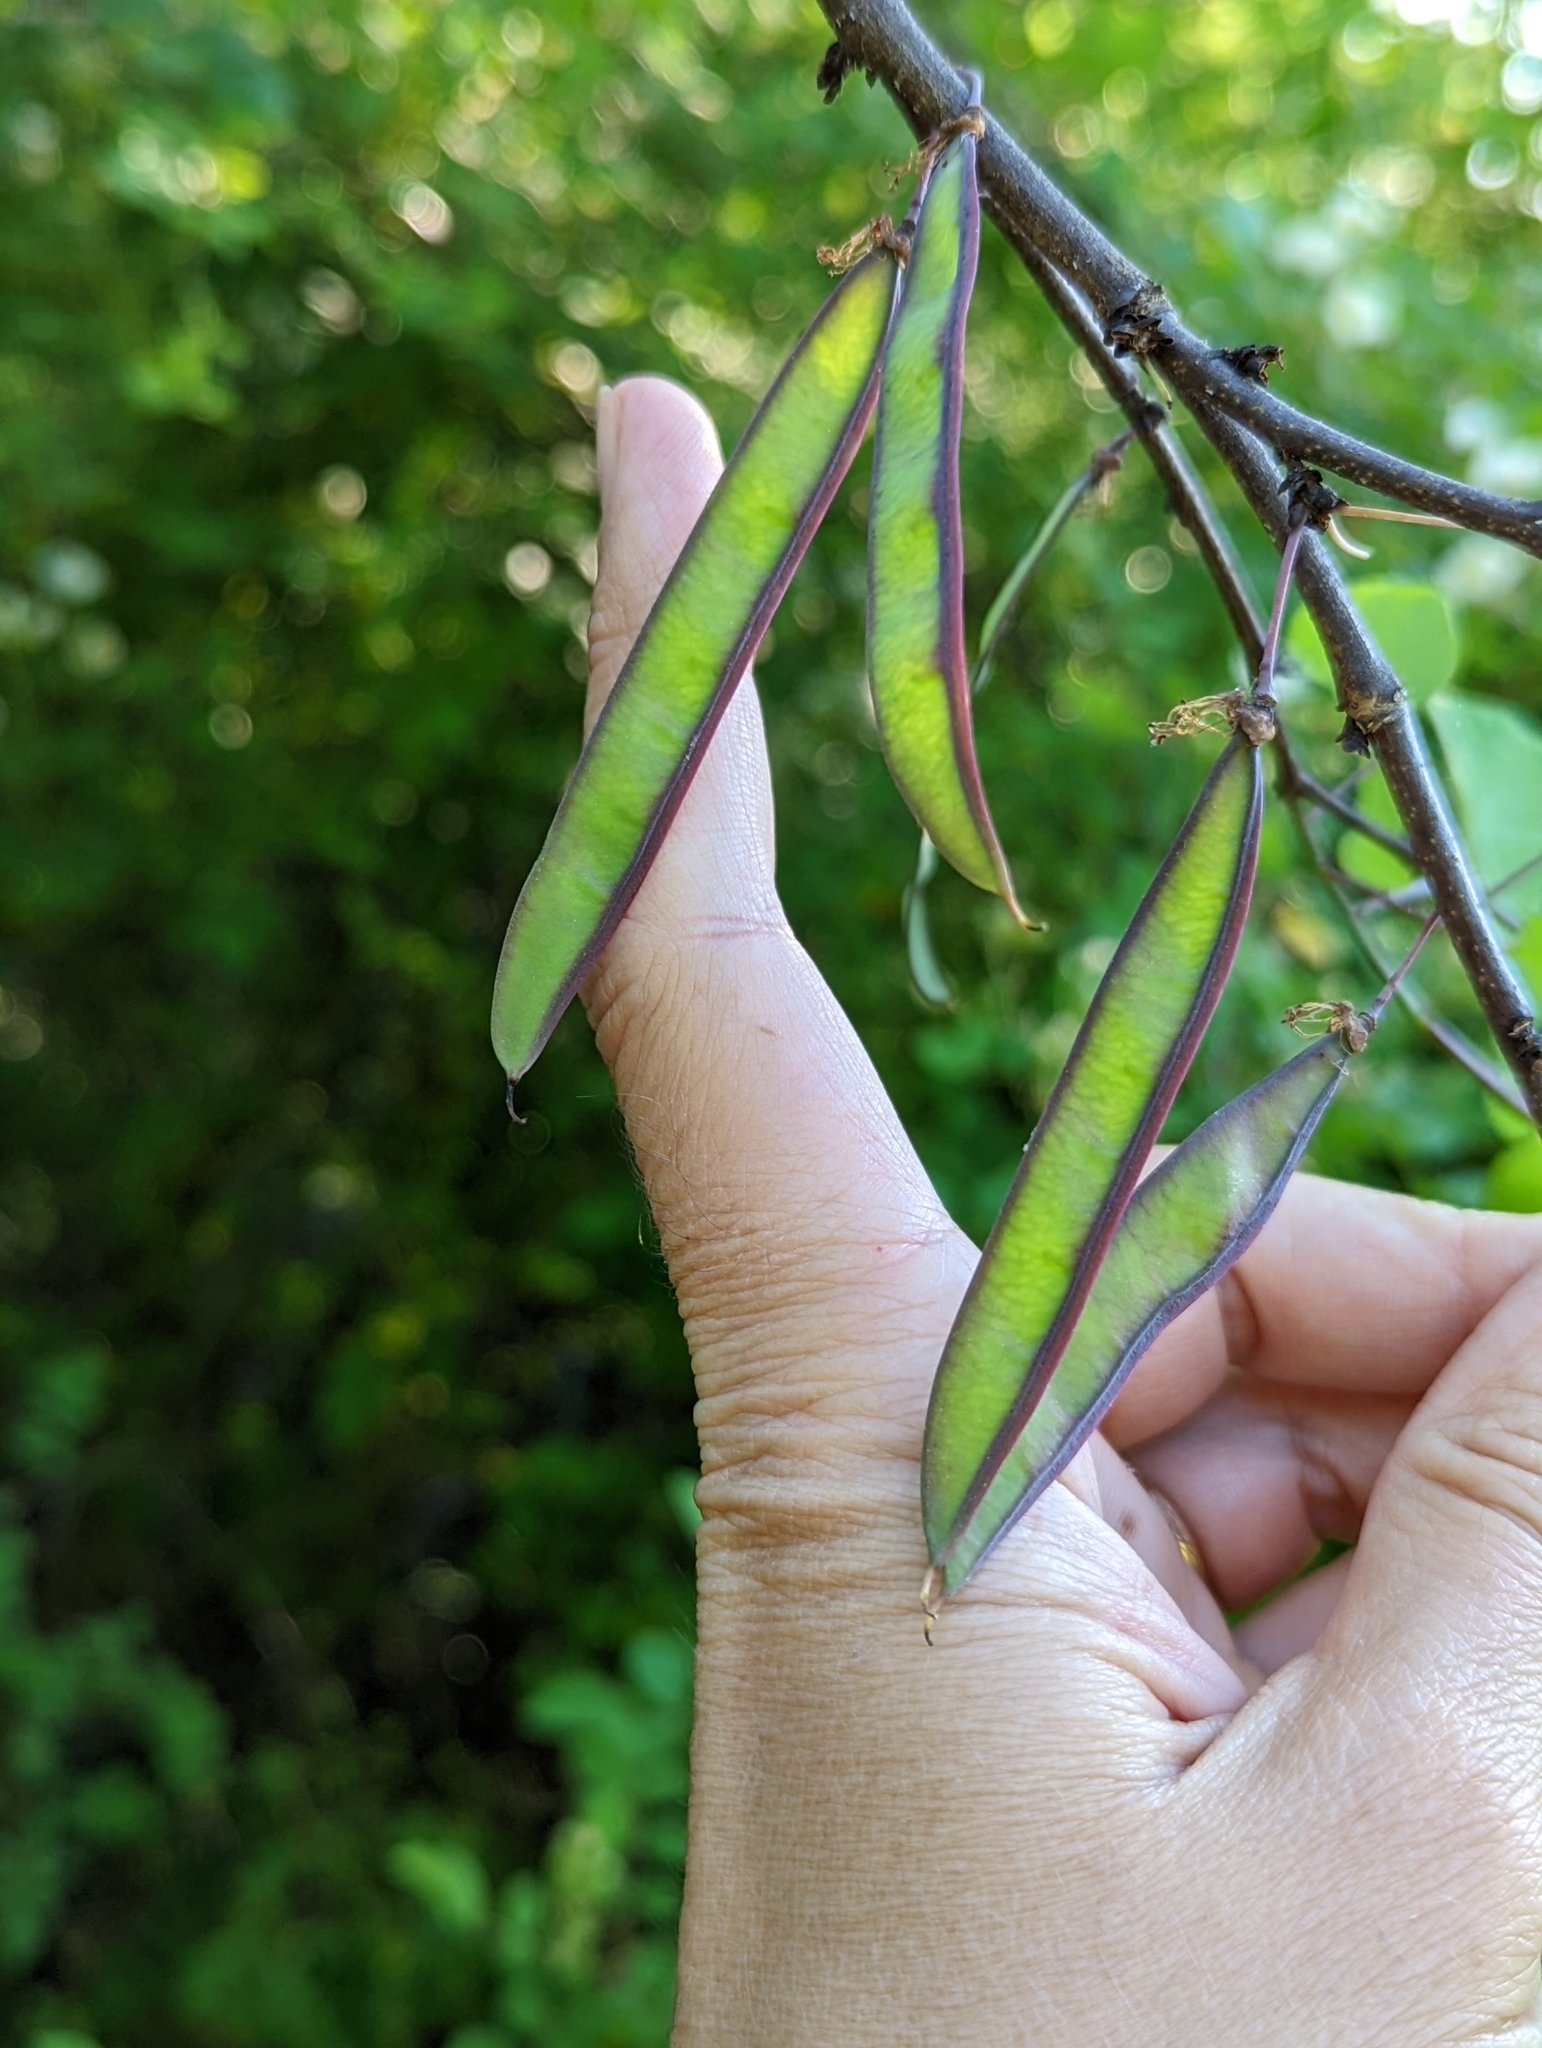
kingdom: Plantae
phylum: Tracheophyta
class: Magnoliopsida
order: Fabales
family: Fabaceae
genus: Cercis
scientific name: Cercis canadensis
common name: Eastern redbud
